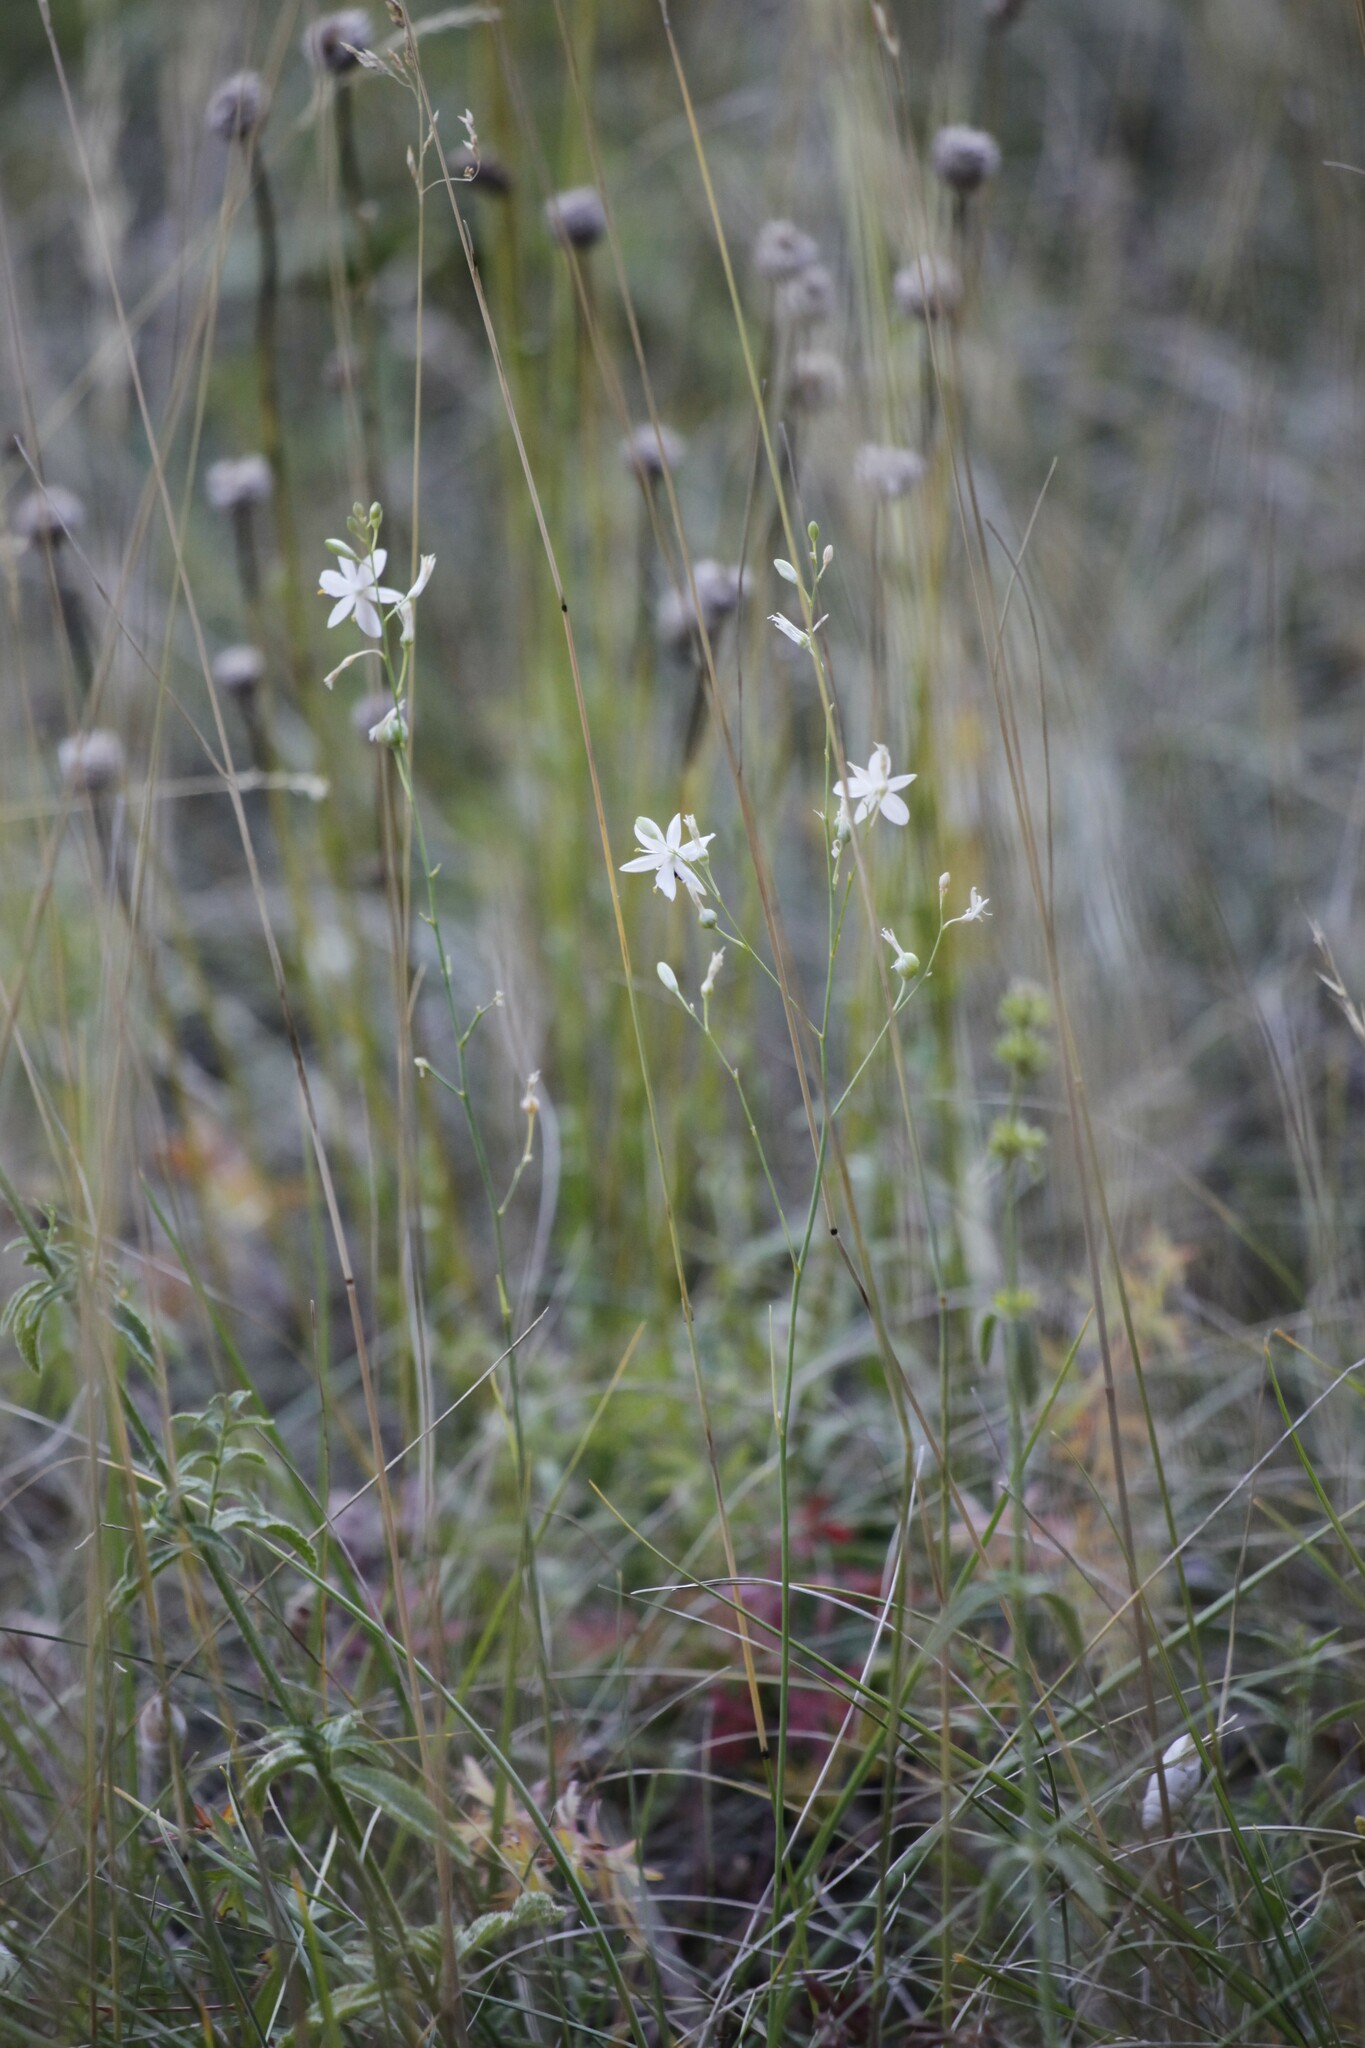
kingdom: Plantae
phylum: Tracheophyta
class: Liliopsida
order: Asparagales
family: Asparagaceae
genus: Anthericum
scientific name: Anthericum ramosum
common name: Branched st. bernard's-lily
